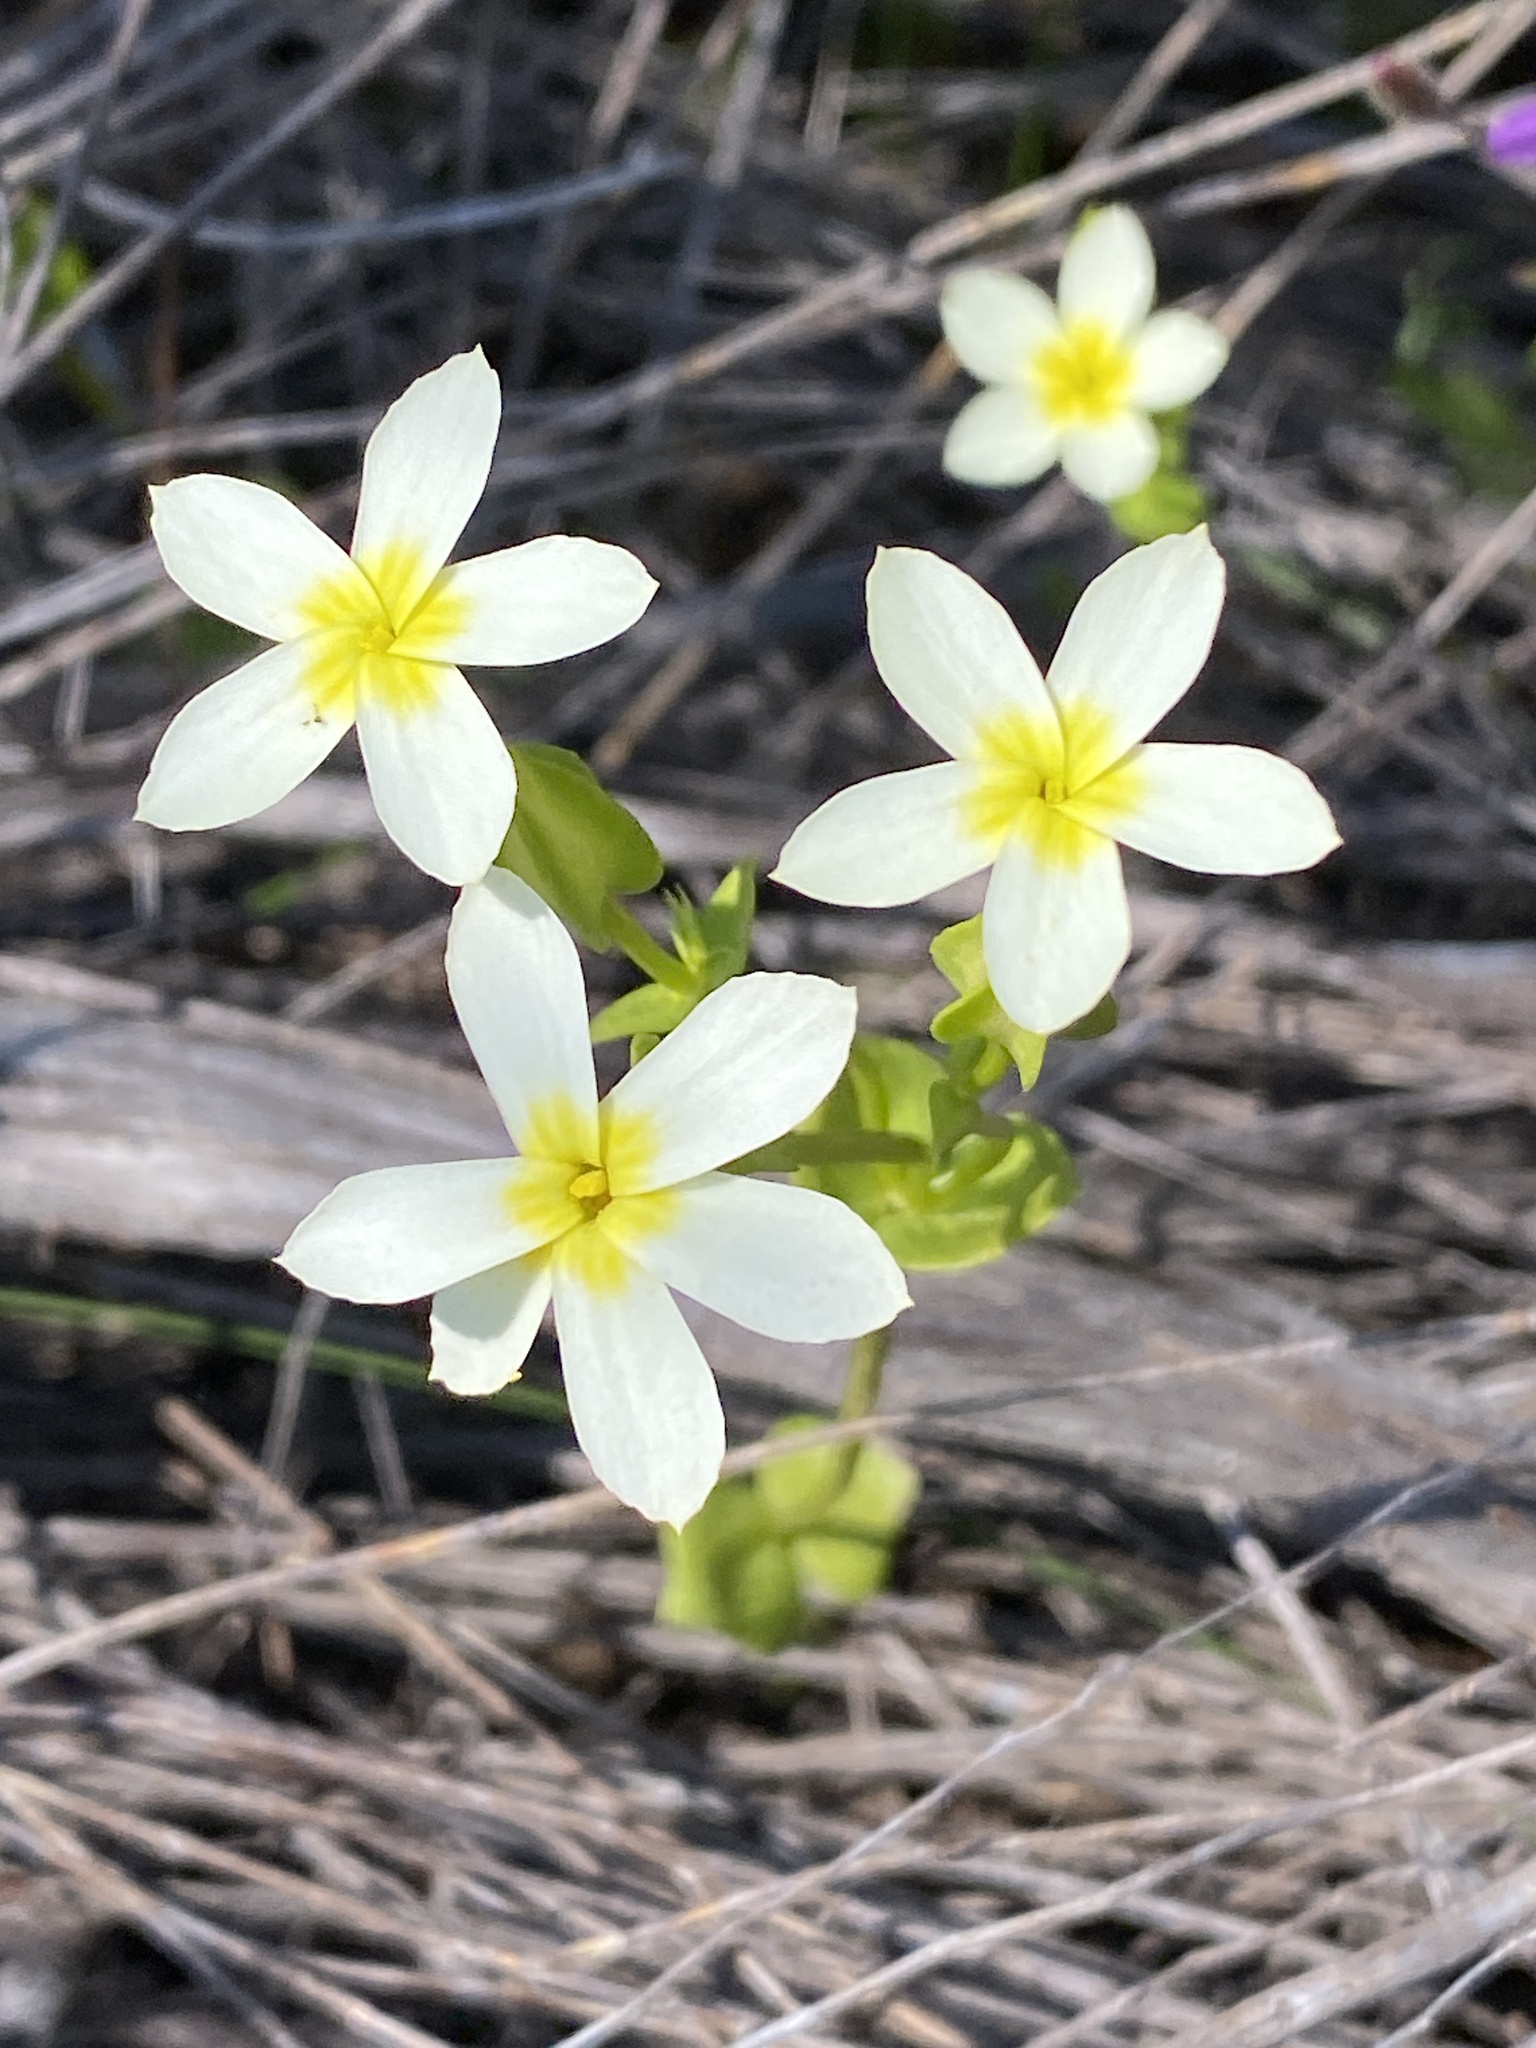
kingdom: Plantae
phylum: Tracheophyta
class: Magnoliopsida
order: Gentianales
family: Gentianaceae
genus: Sebaea
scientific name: Sebaea exacoides
